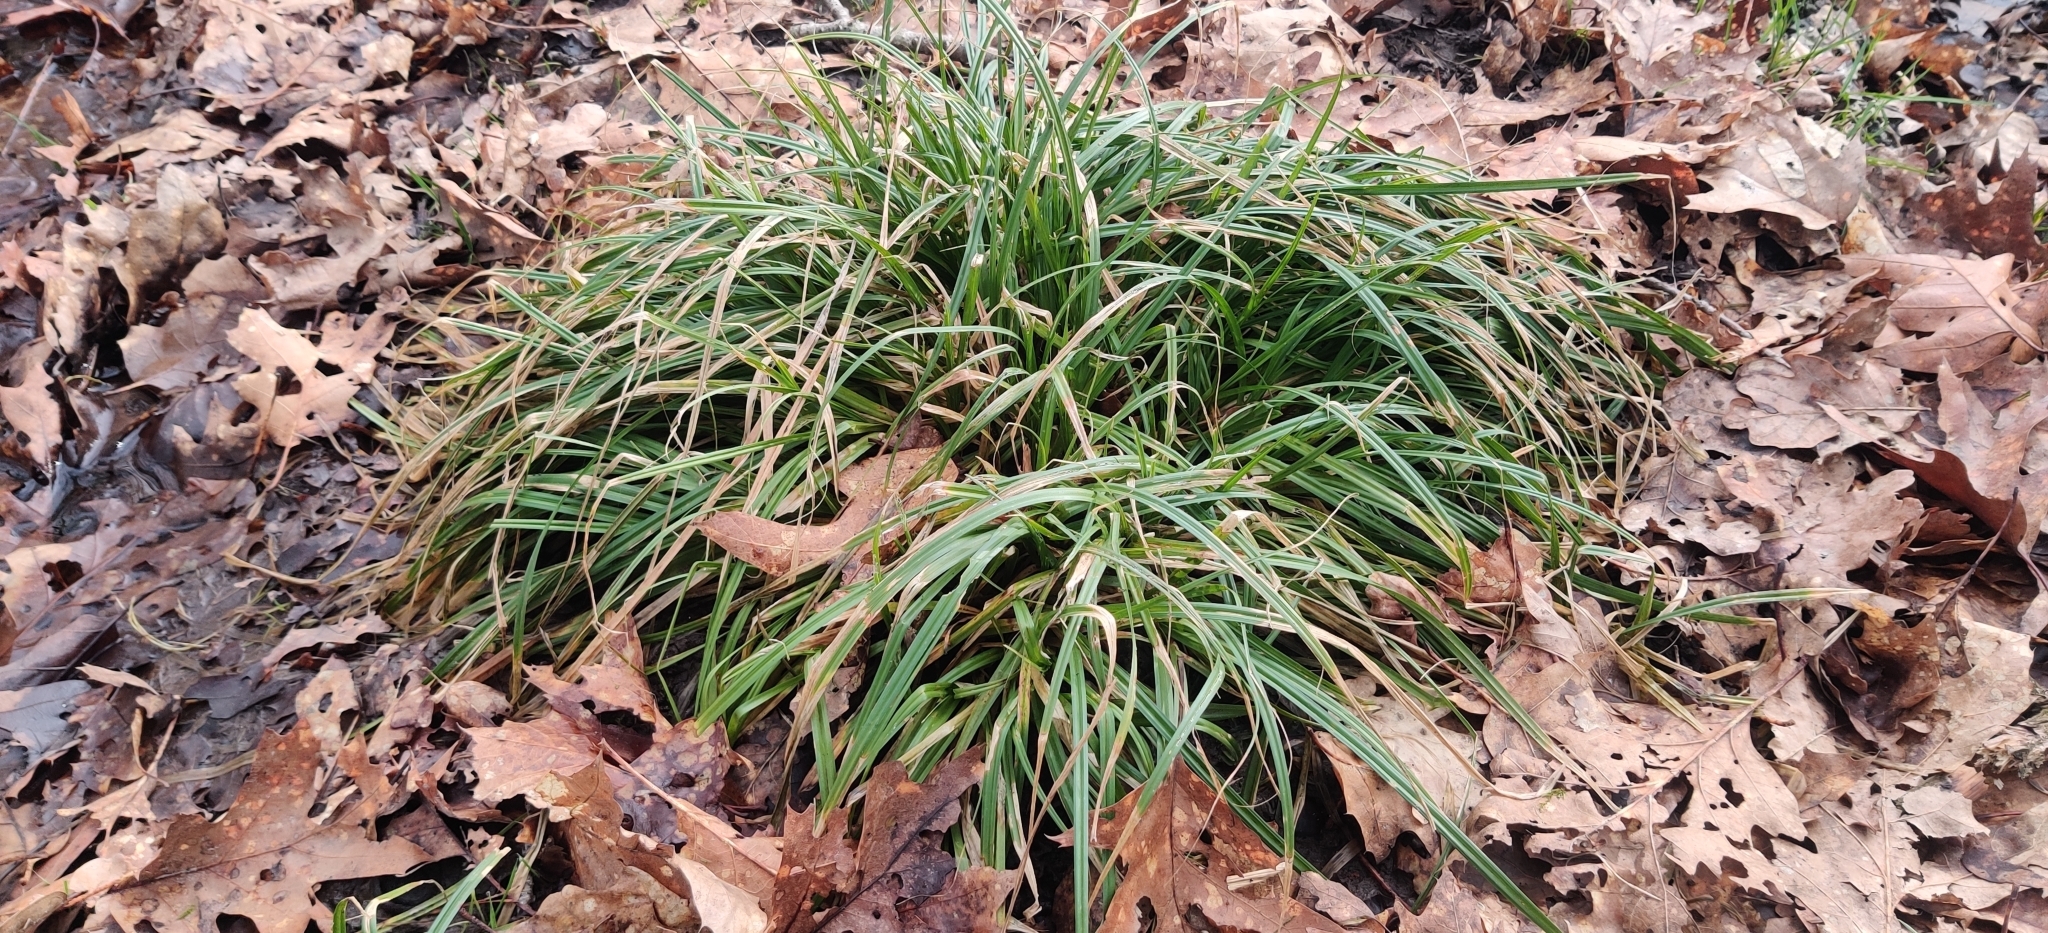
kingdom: Plantae
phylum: Tracheophyta
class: Liliopsida
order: Poales
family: Cyperaceae
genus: Carex
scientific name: Carex sylvatica
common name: Wood-sedge
